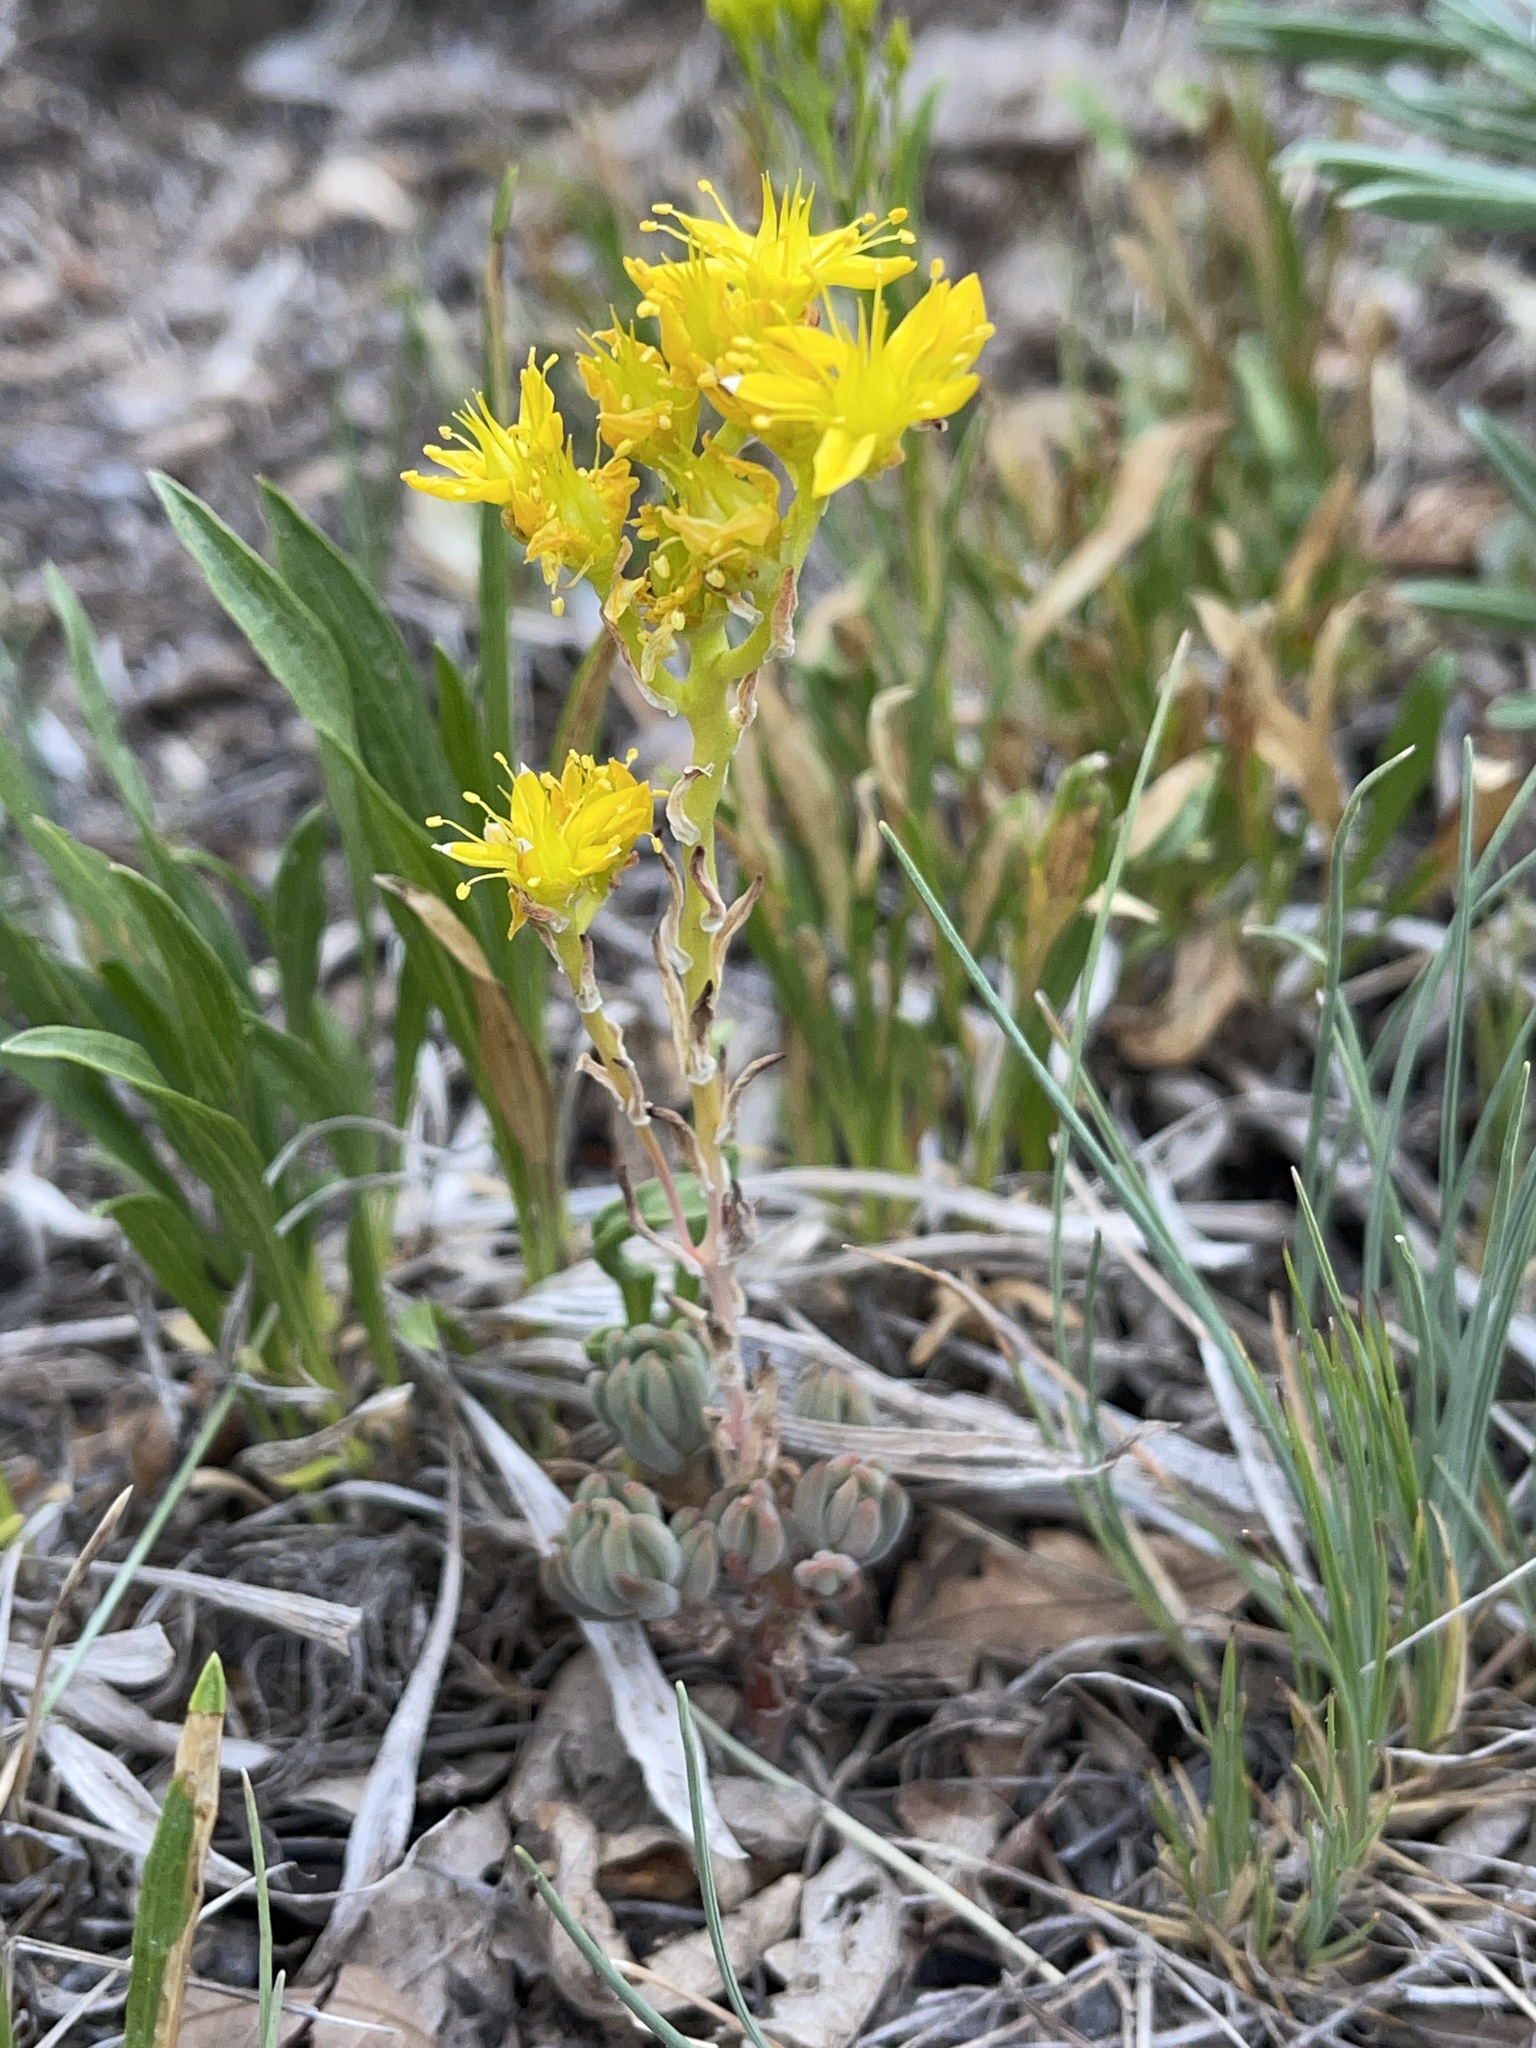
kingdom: Plantae
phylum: Tracheophyta
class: Magnoliopsida
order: Saxifragales
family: Crassulaceae
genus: Sedum
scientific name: Sedum lanceolatum
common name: Common stonecrop
